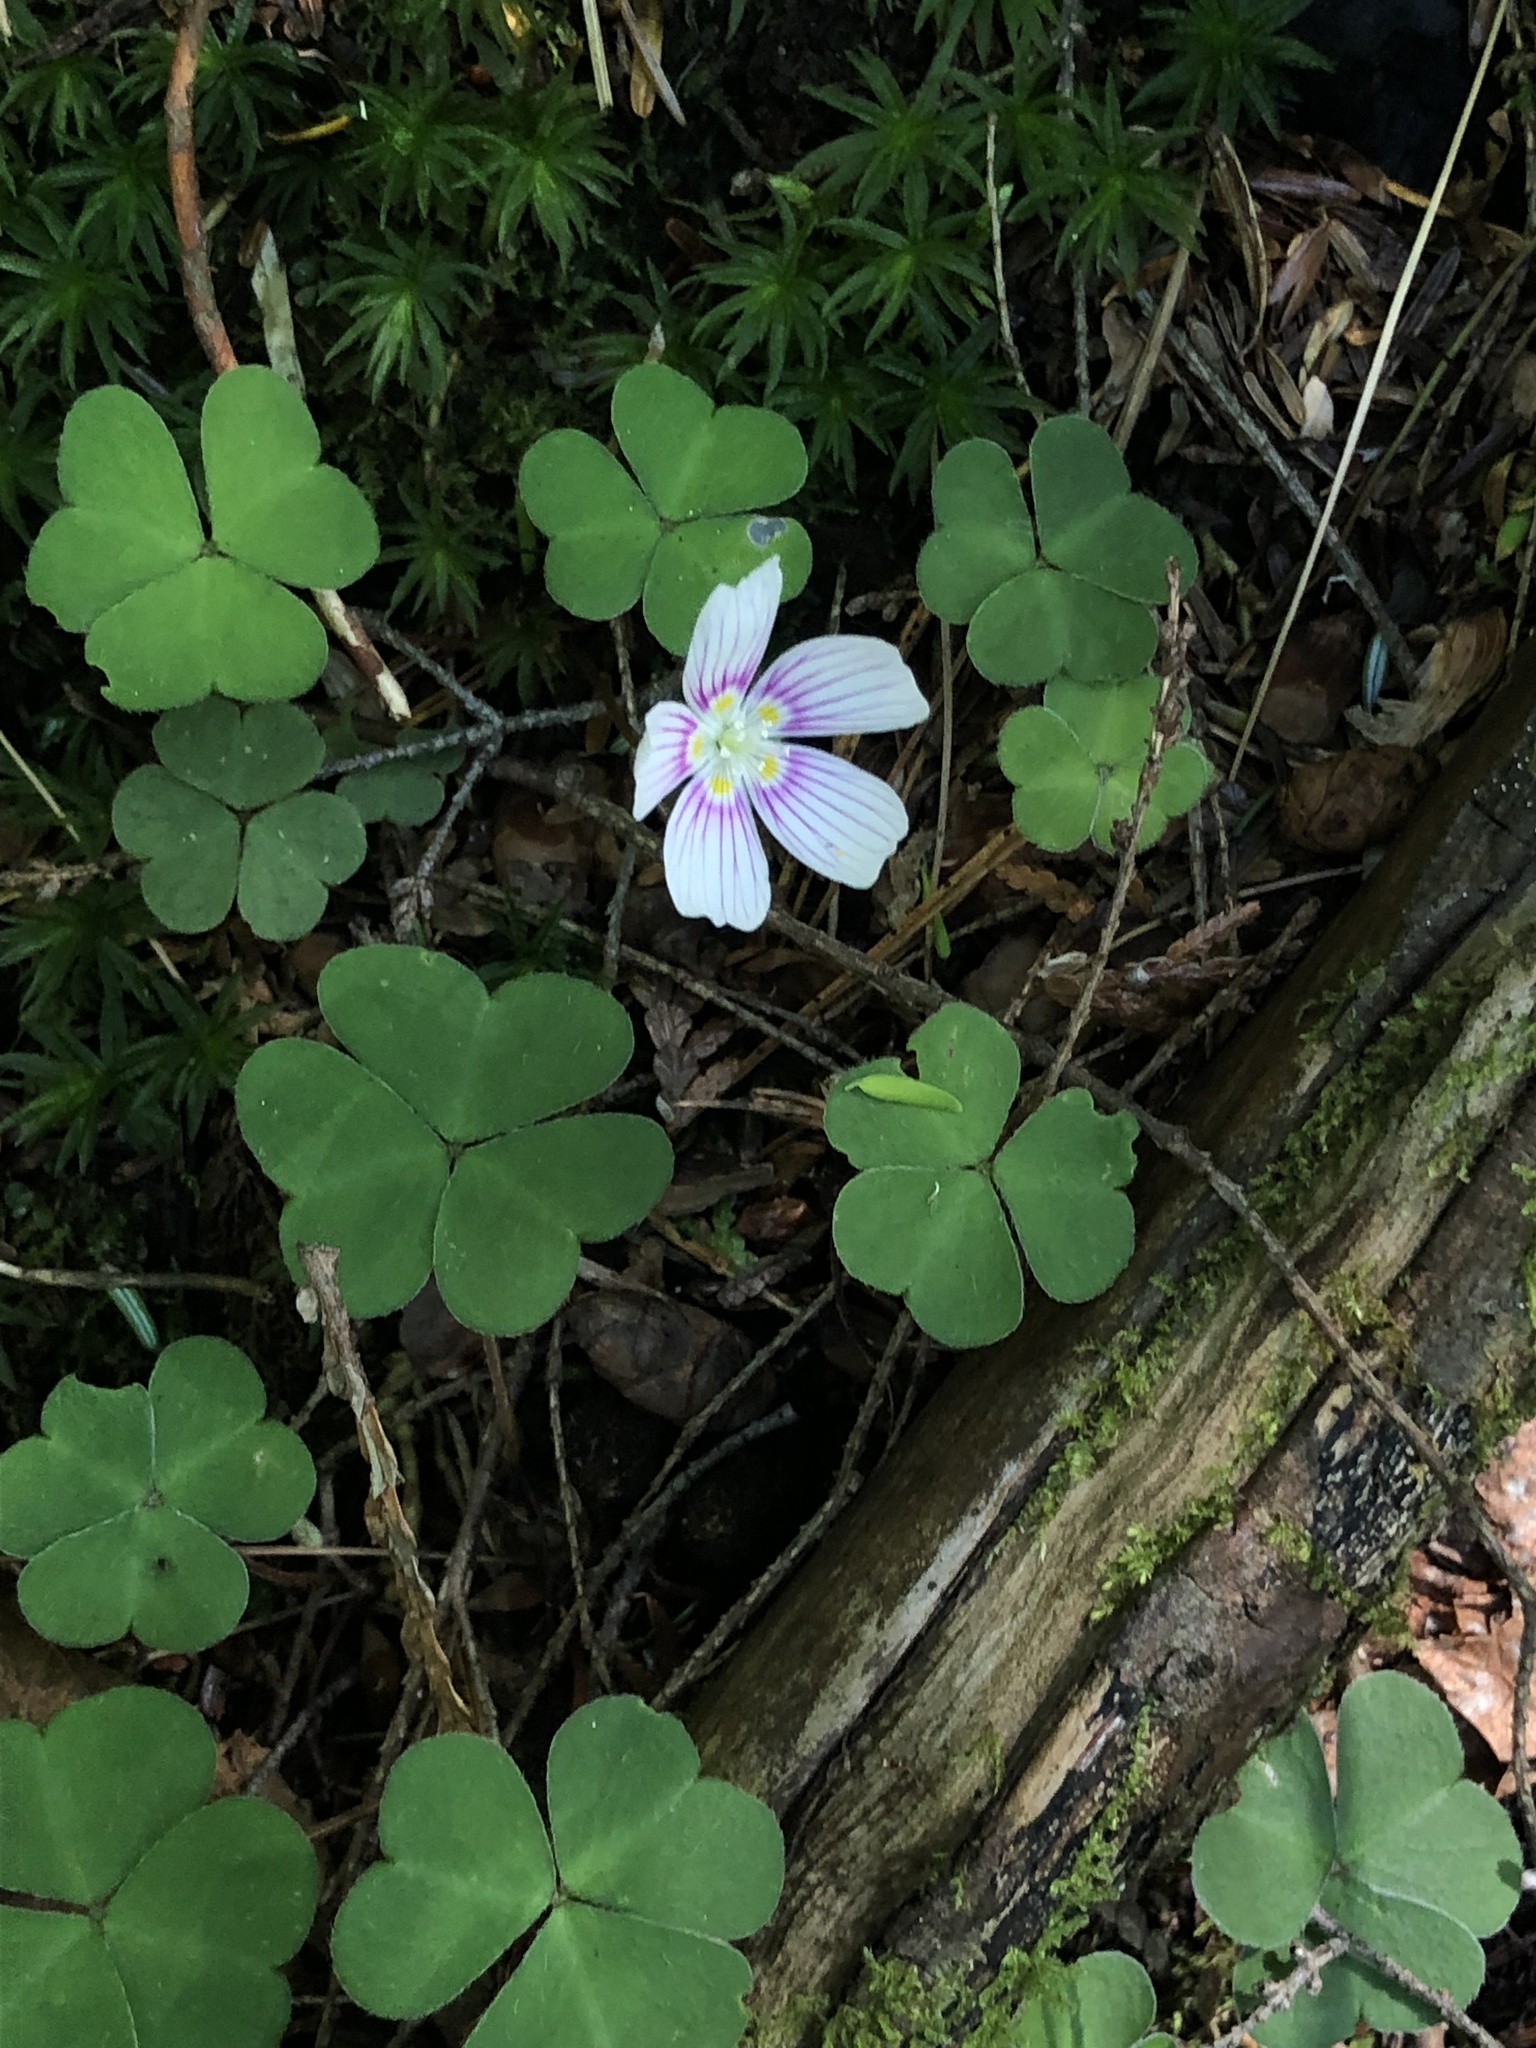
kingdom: Plantae
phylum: Tracheophyta
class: Magnoliopsida
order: Oxalidales
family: Oxalidaceae
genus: Oxalis
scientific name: Oxalis montana
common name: American wood-sorrel
